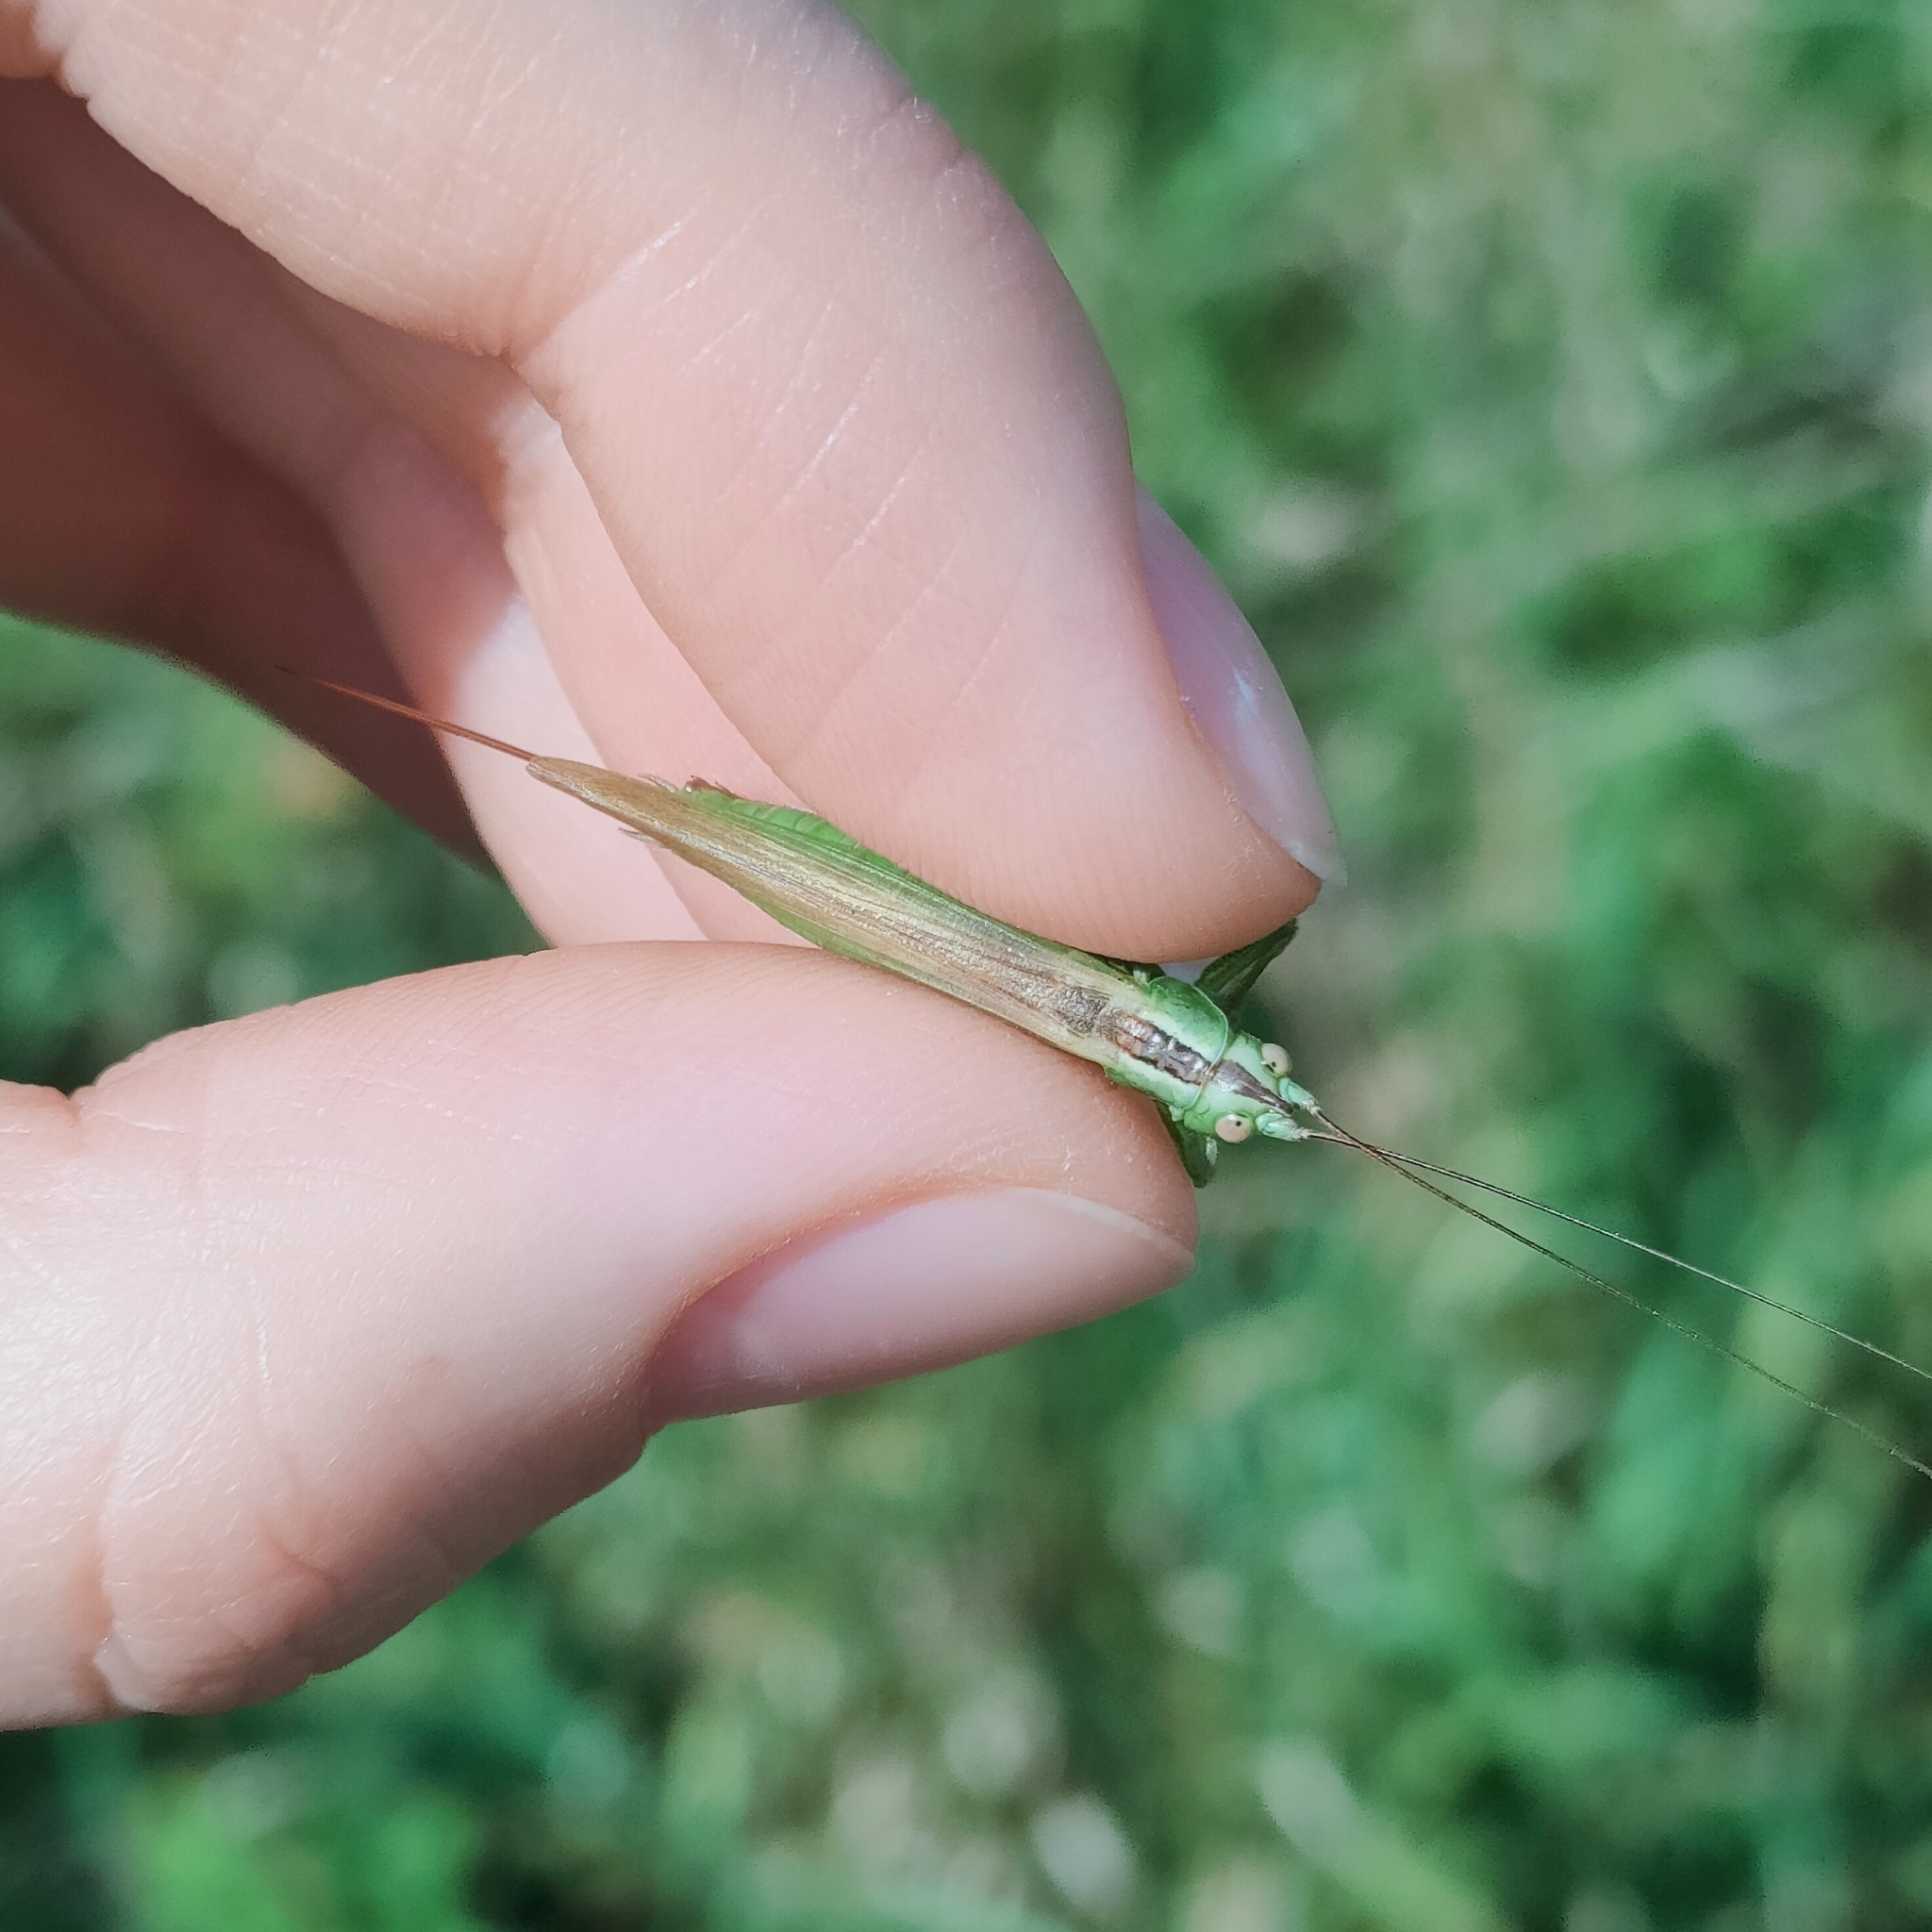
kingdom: Animalia
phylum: Arthropoda
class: Insecta
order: Orthoptera
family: Tettigoniidae
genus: Conocephalus
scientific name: Conocephalus fuscus
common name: Long-winged conehead
